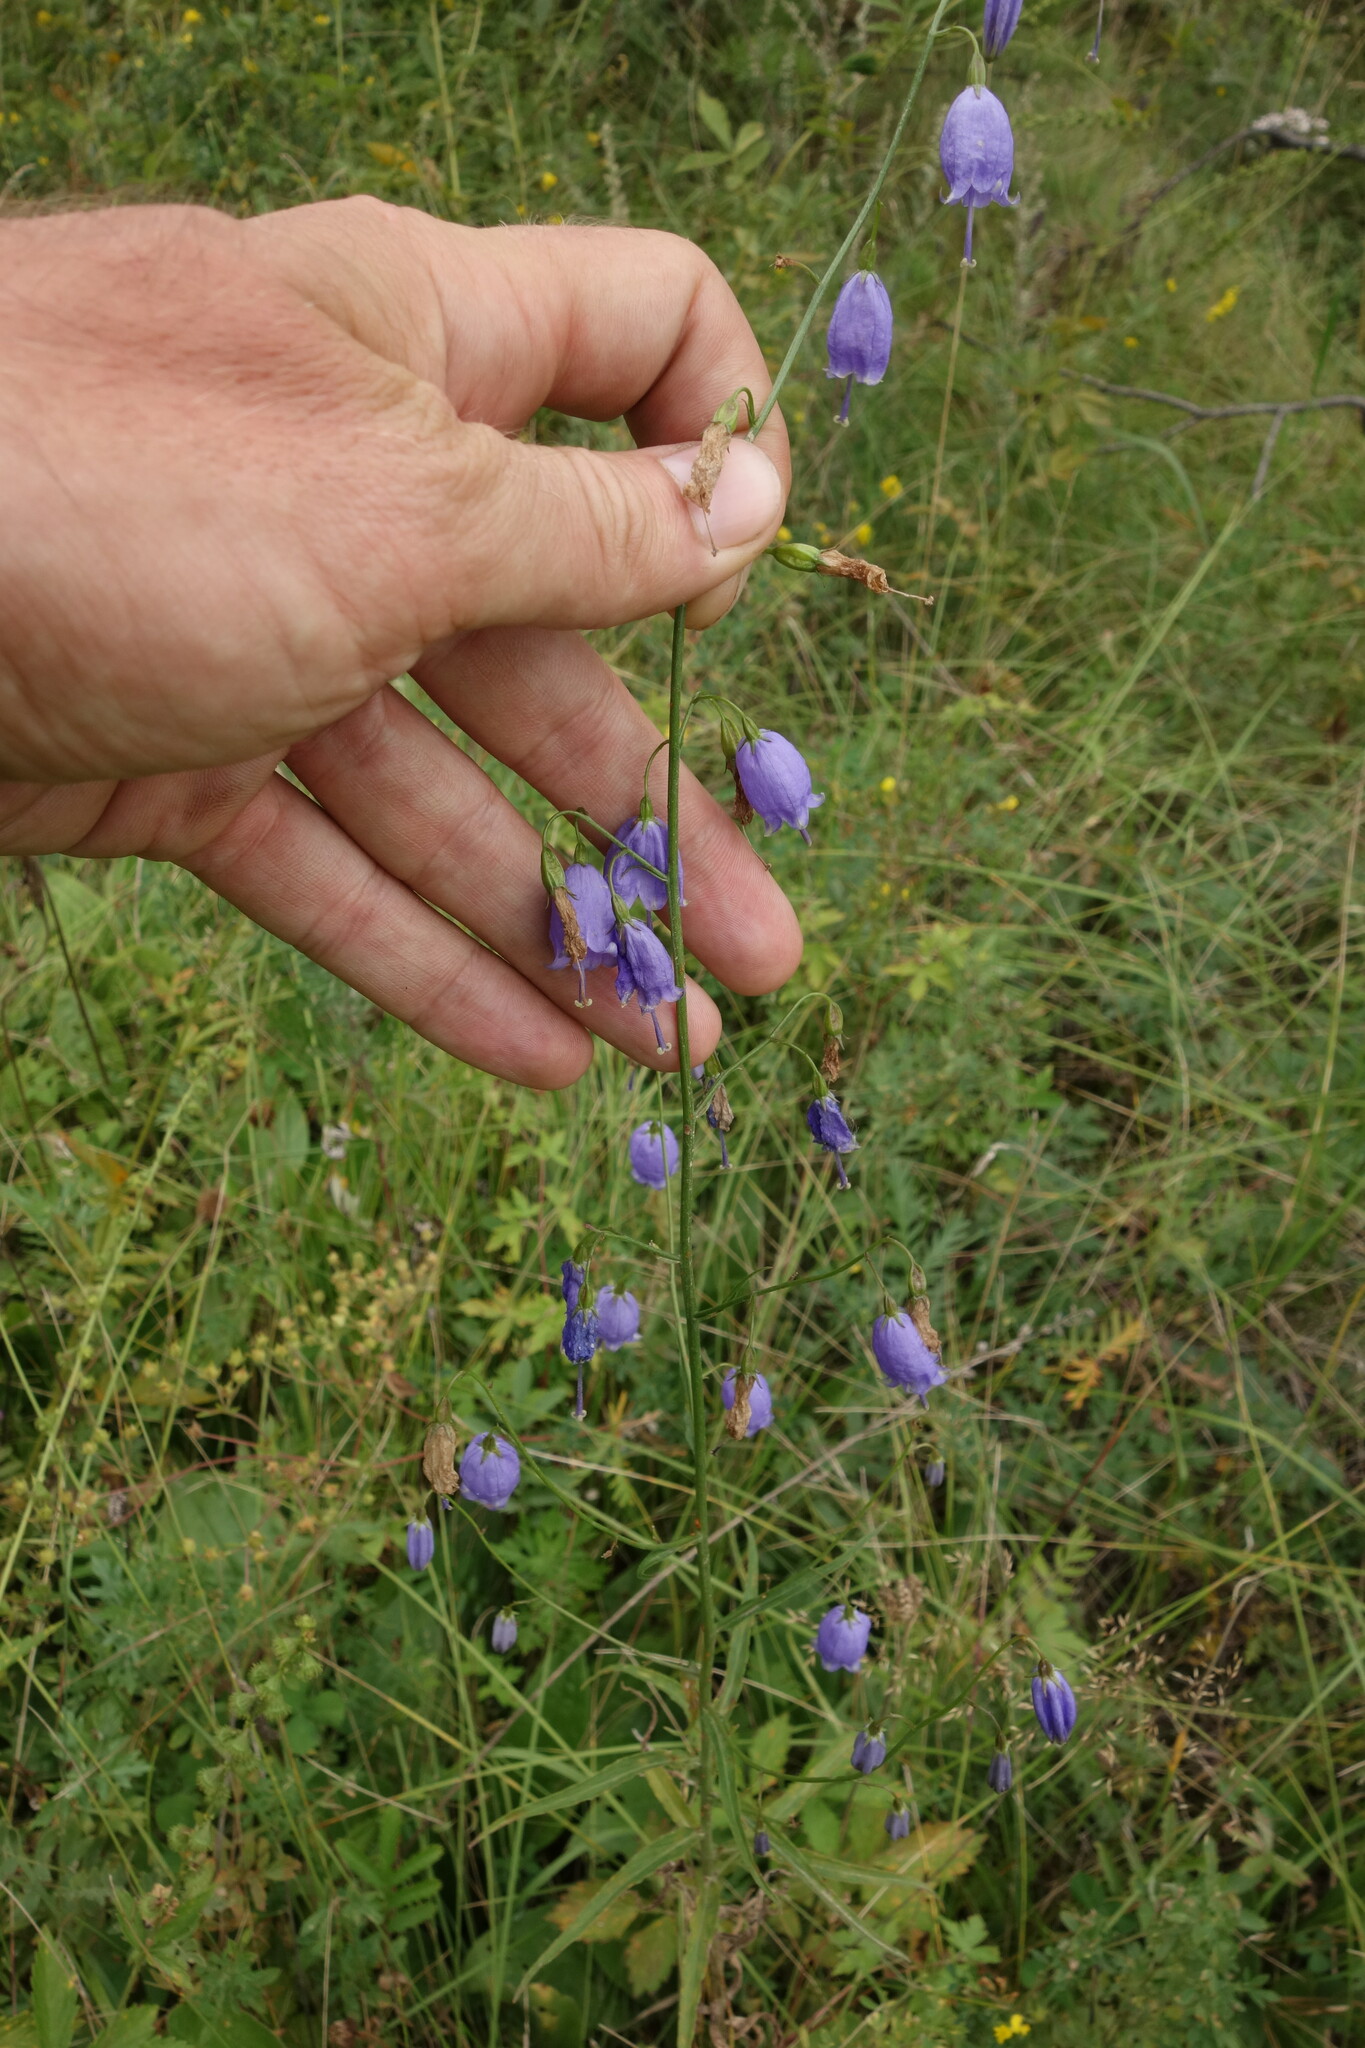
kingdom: Plantae
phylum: Tracheophyta
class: Magnoliopsida
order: Asterales
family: Campanulaceae
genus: Adenophora
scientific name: Adenophora stenanthina
